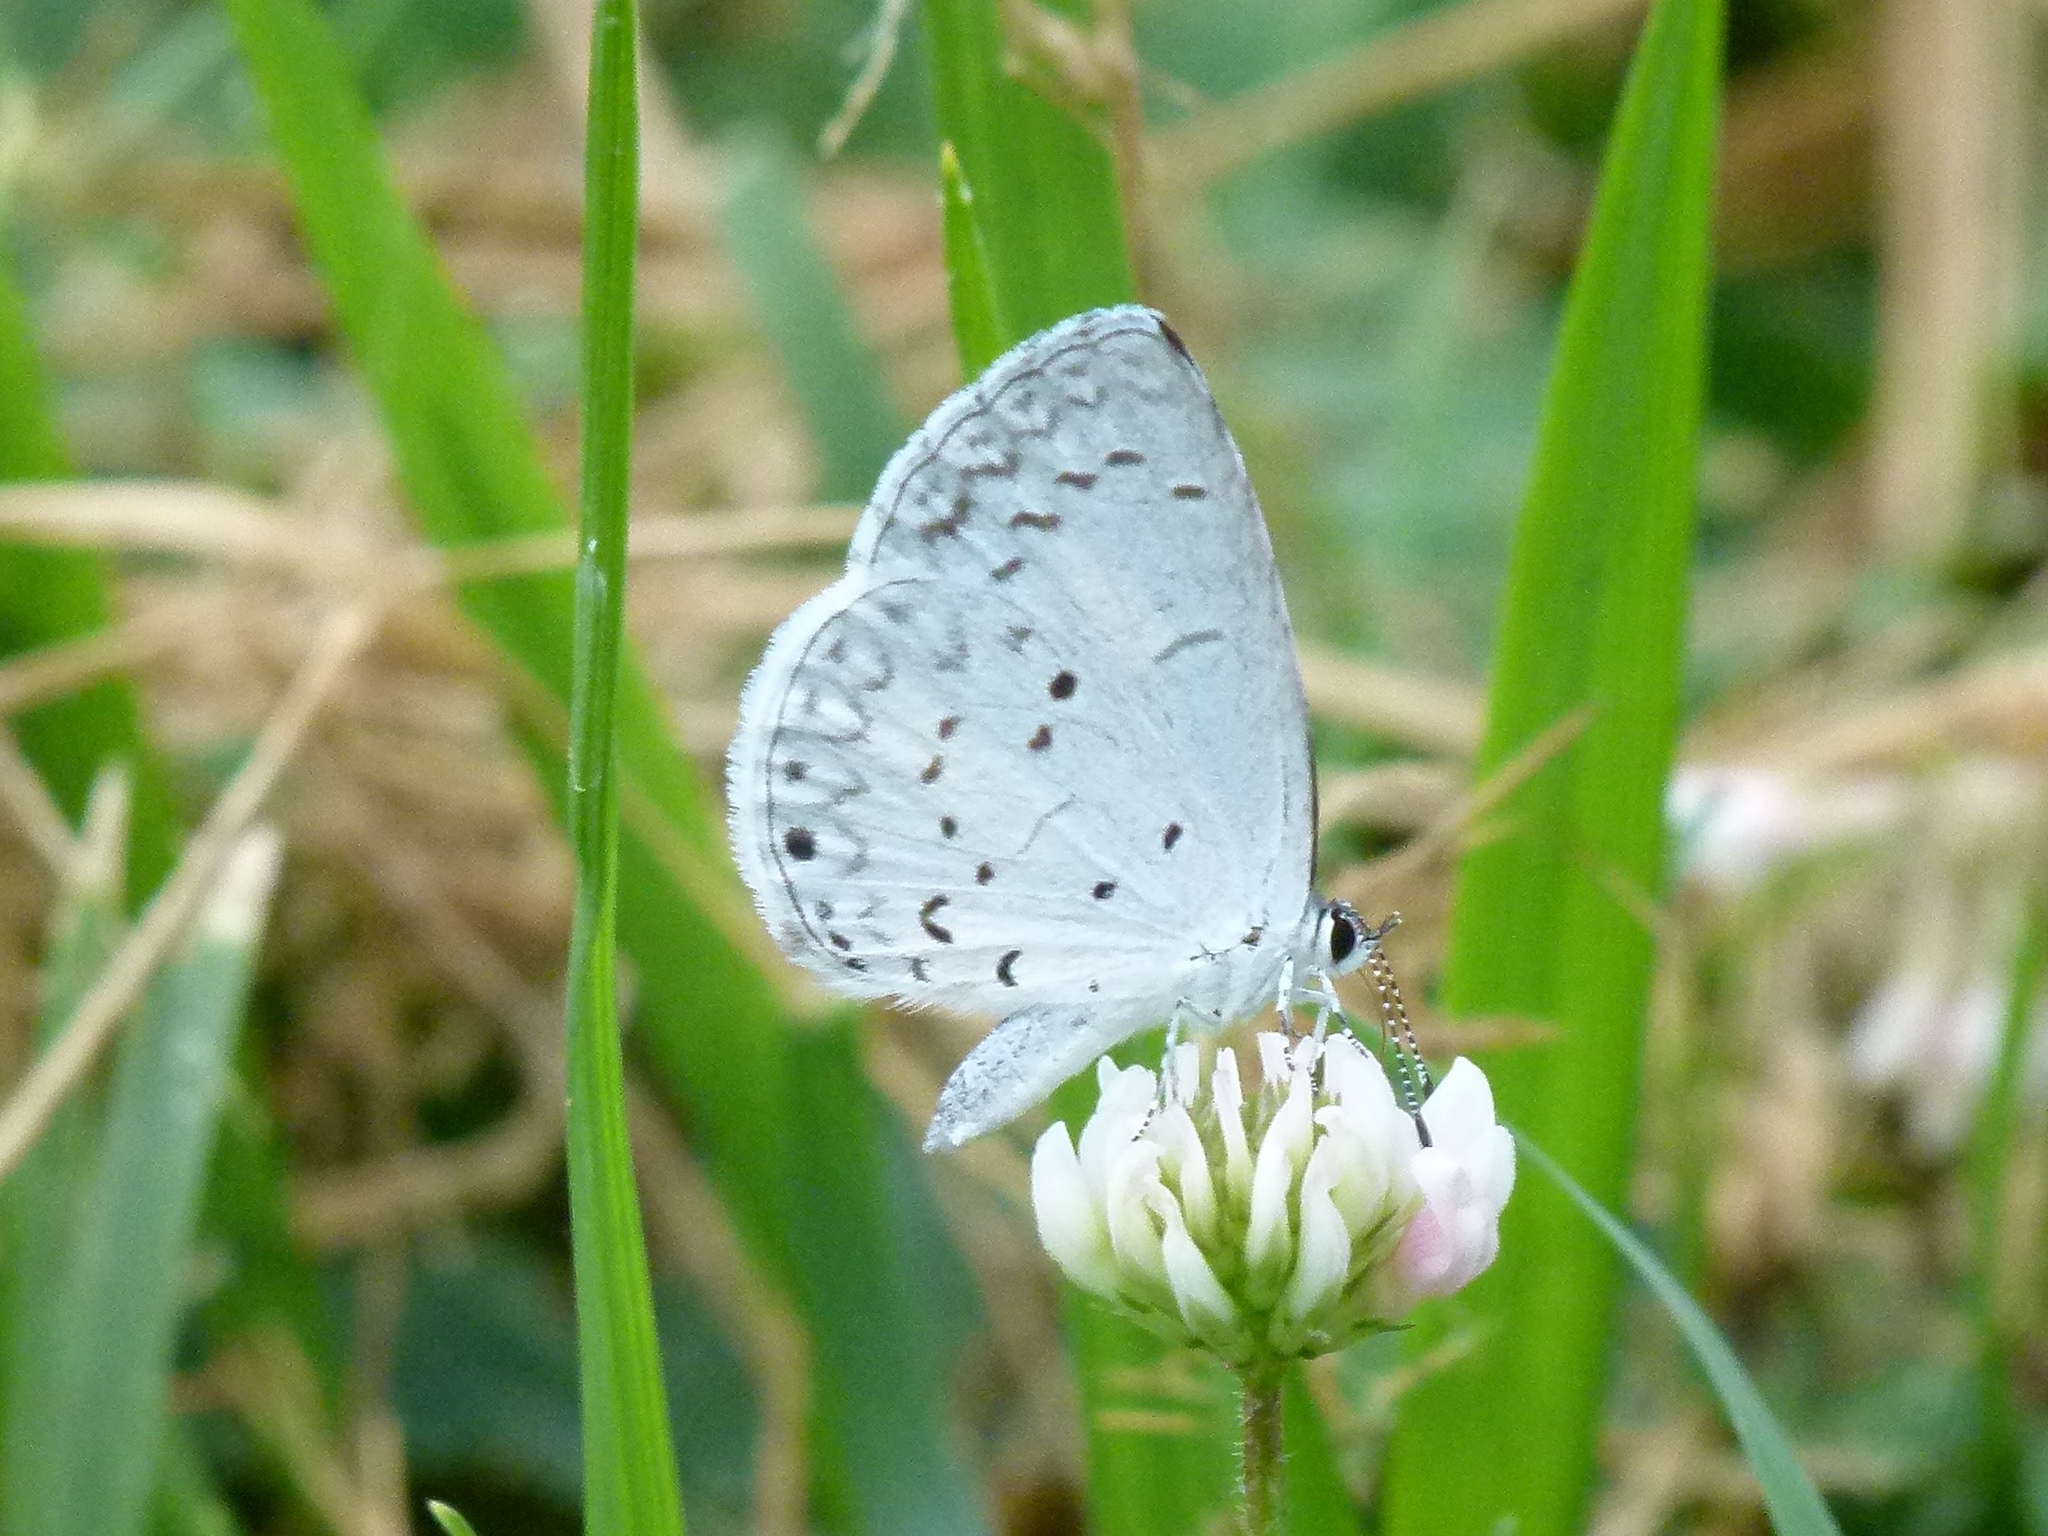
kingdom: Animalia
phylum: Arthropoda
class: Insecta
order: Lepidoptera
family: Lycaenidae
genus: Cyaniris
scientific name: Cyaniris neglecta
